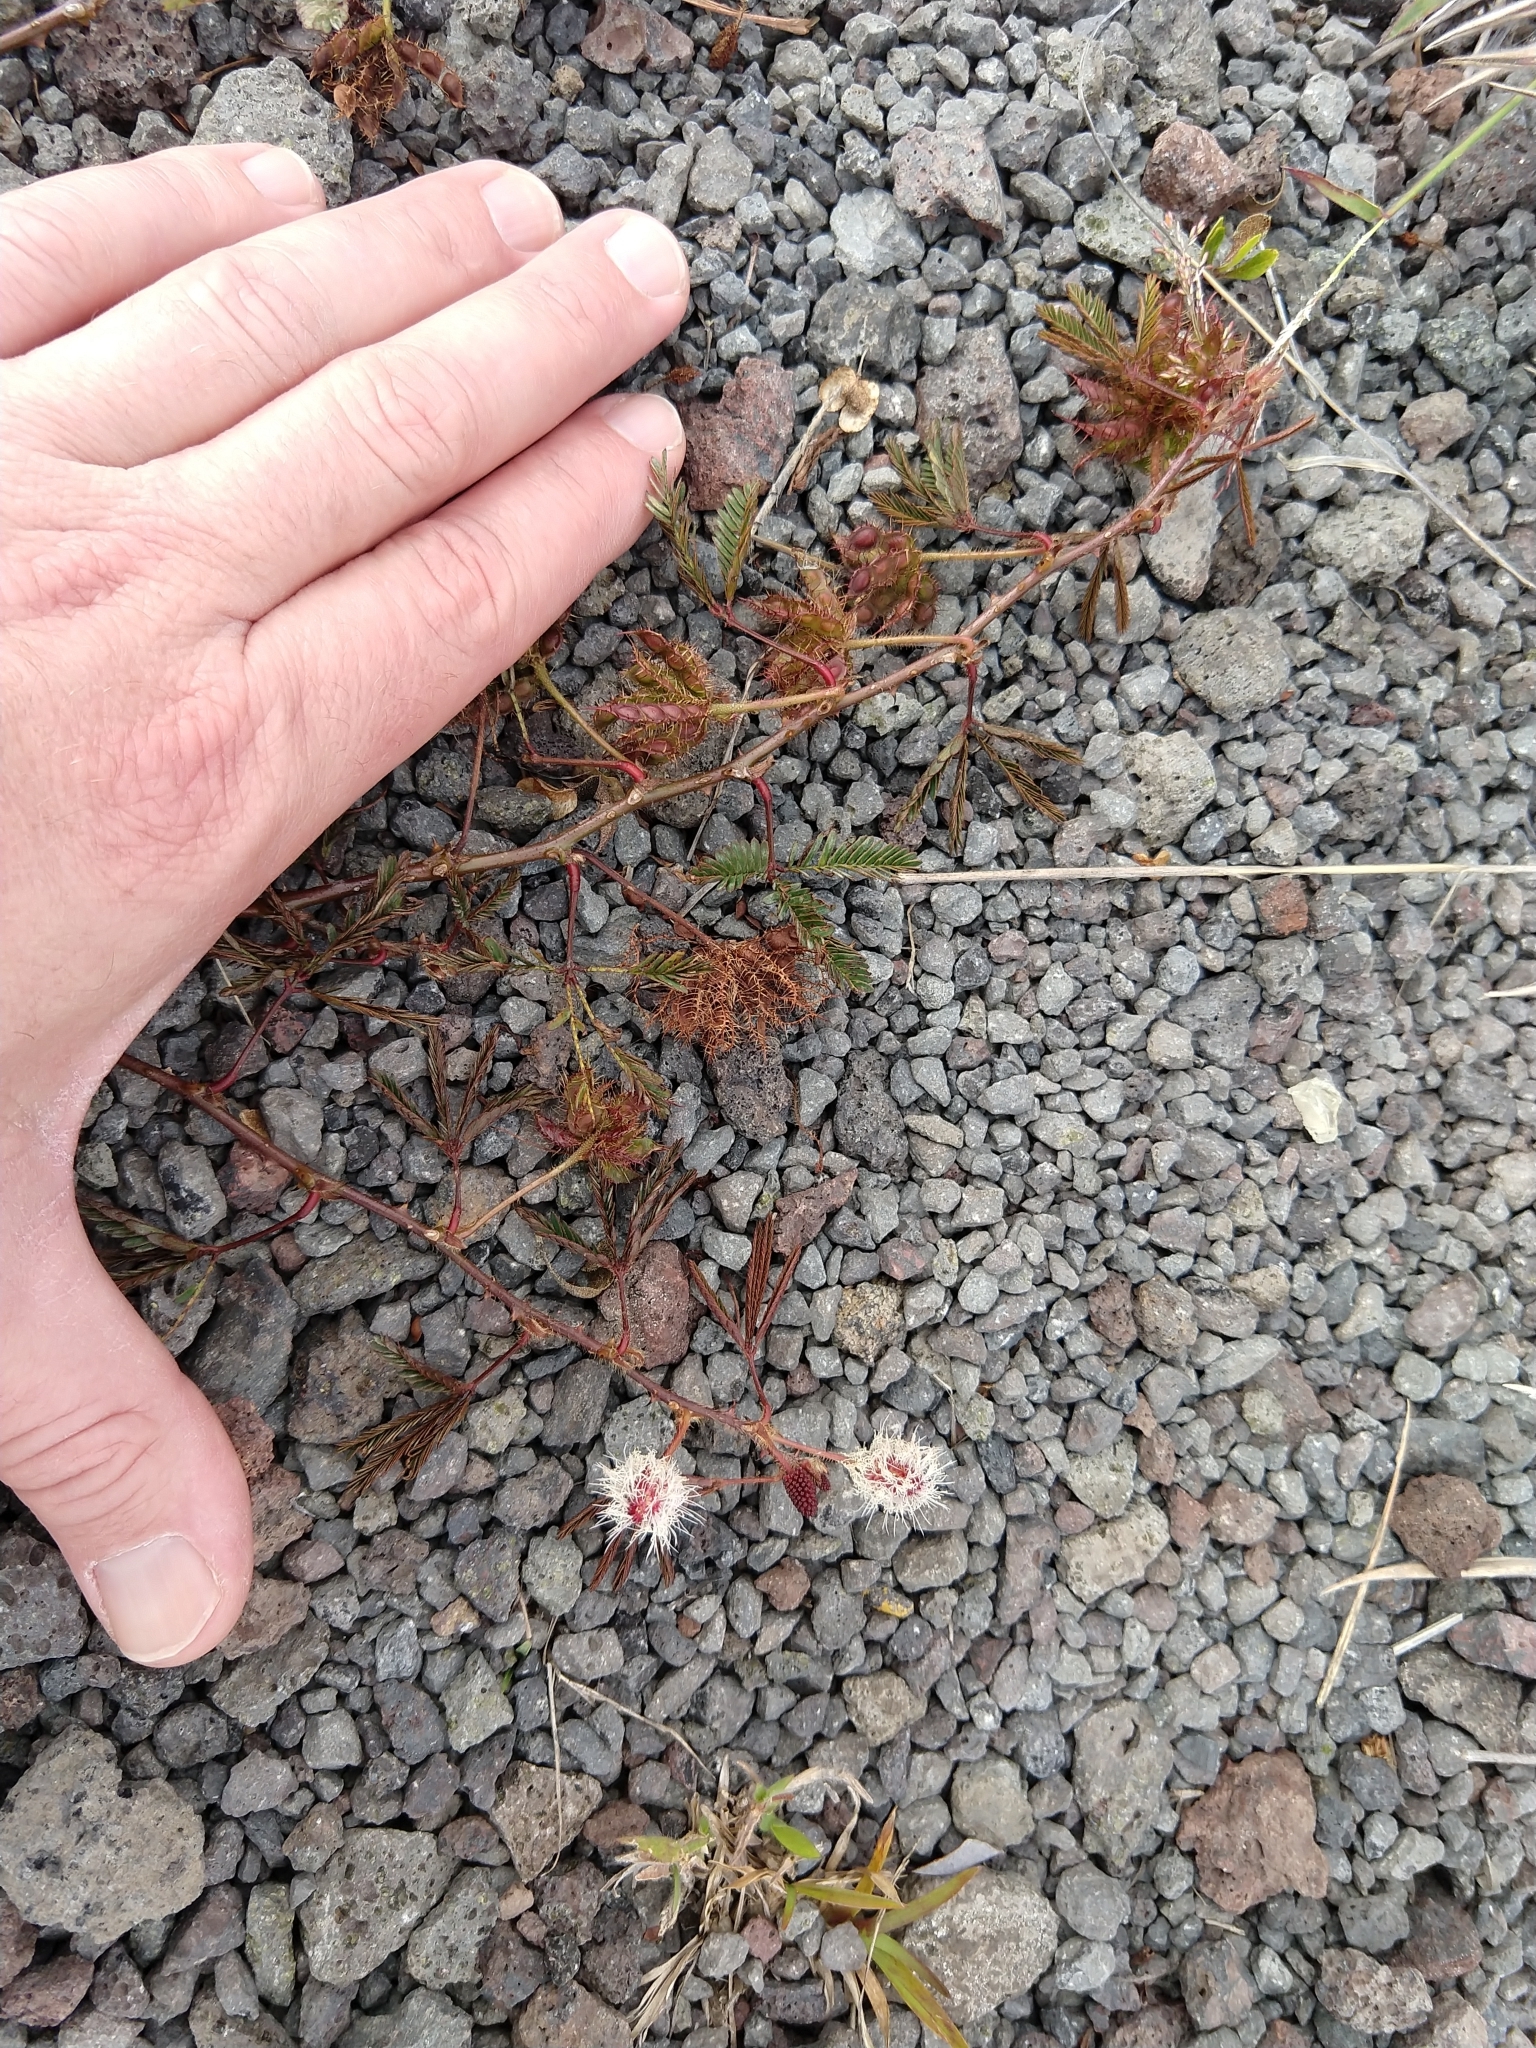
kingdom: Plantae
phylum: Tracheophyta
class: Magnoliopsida
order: Fabales
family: Fabaceae
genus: Mimosa
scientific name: Mimosa pudica
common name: Sensitive plant
